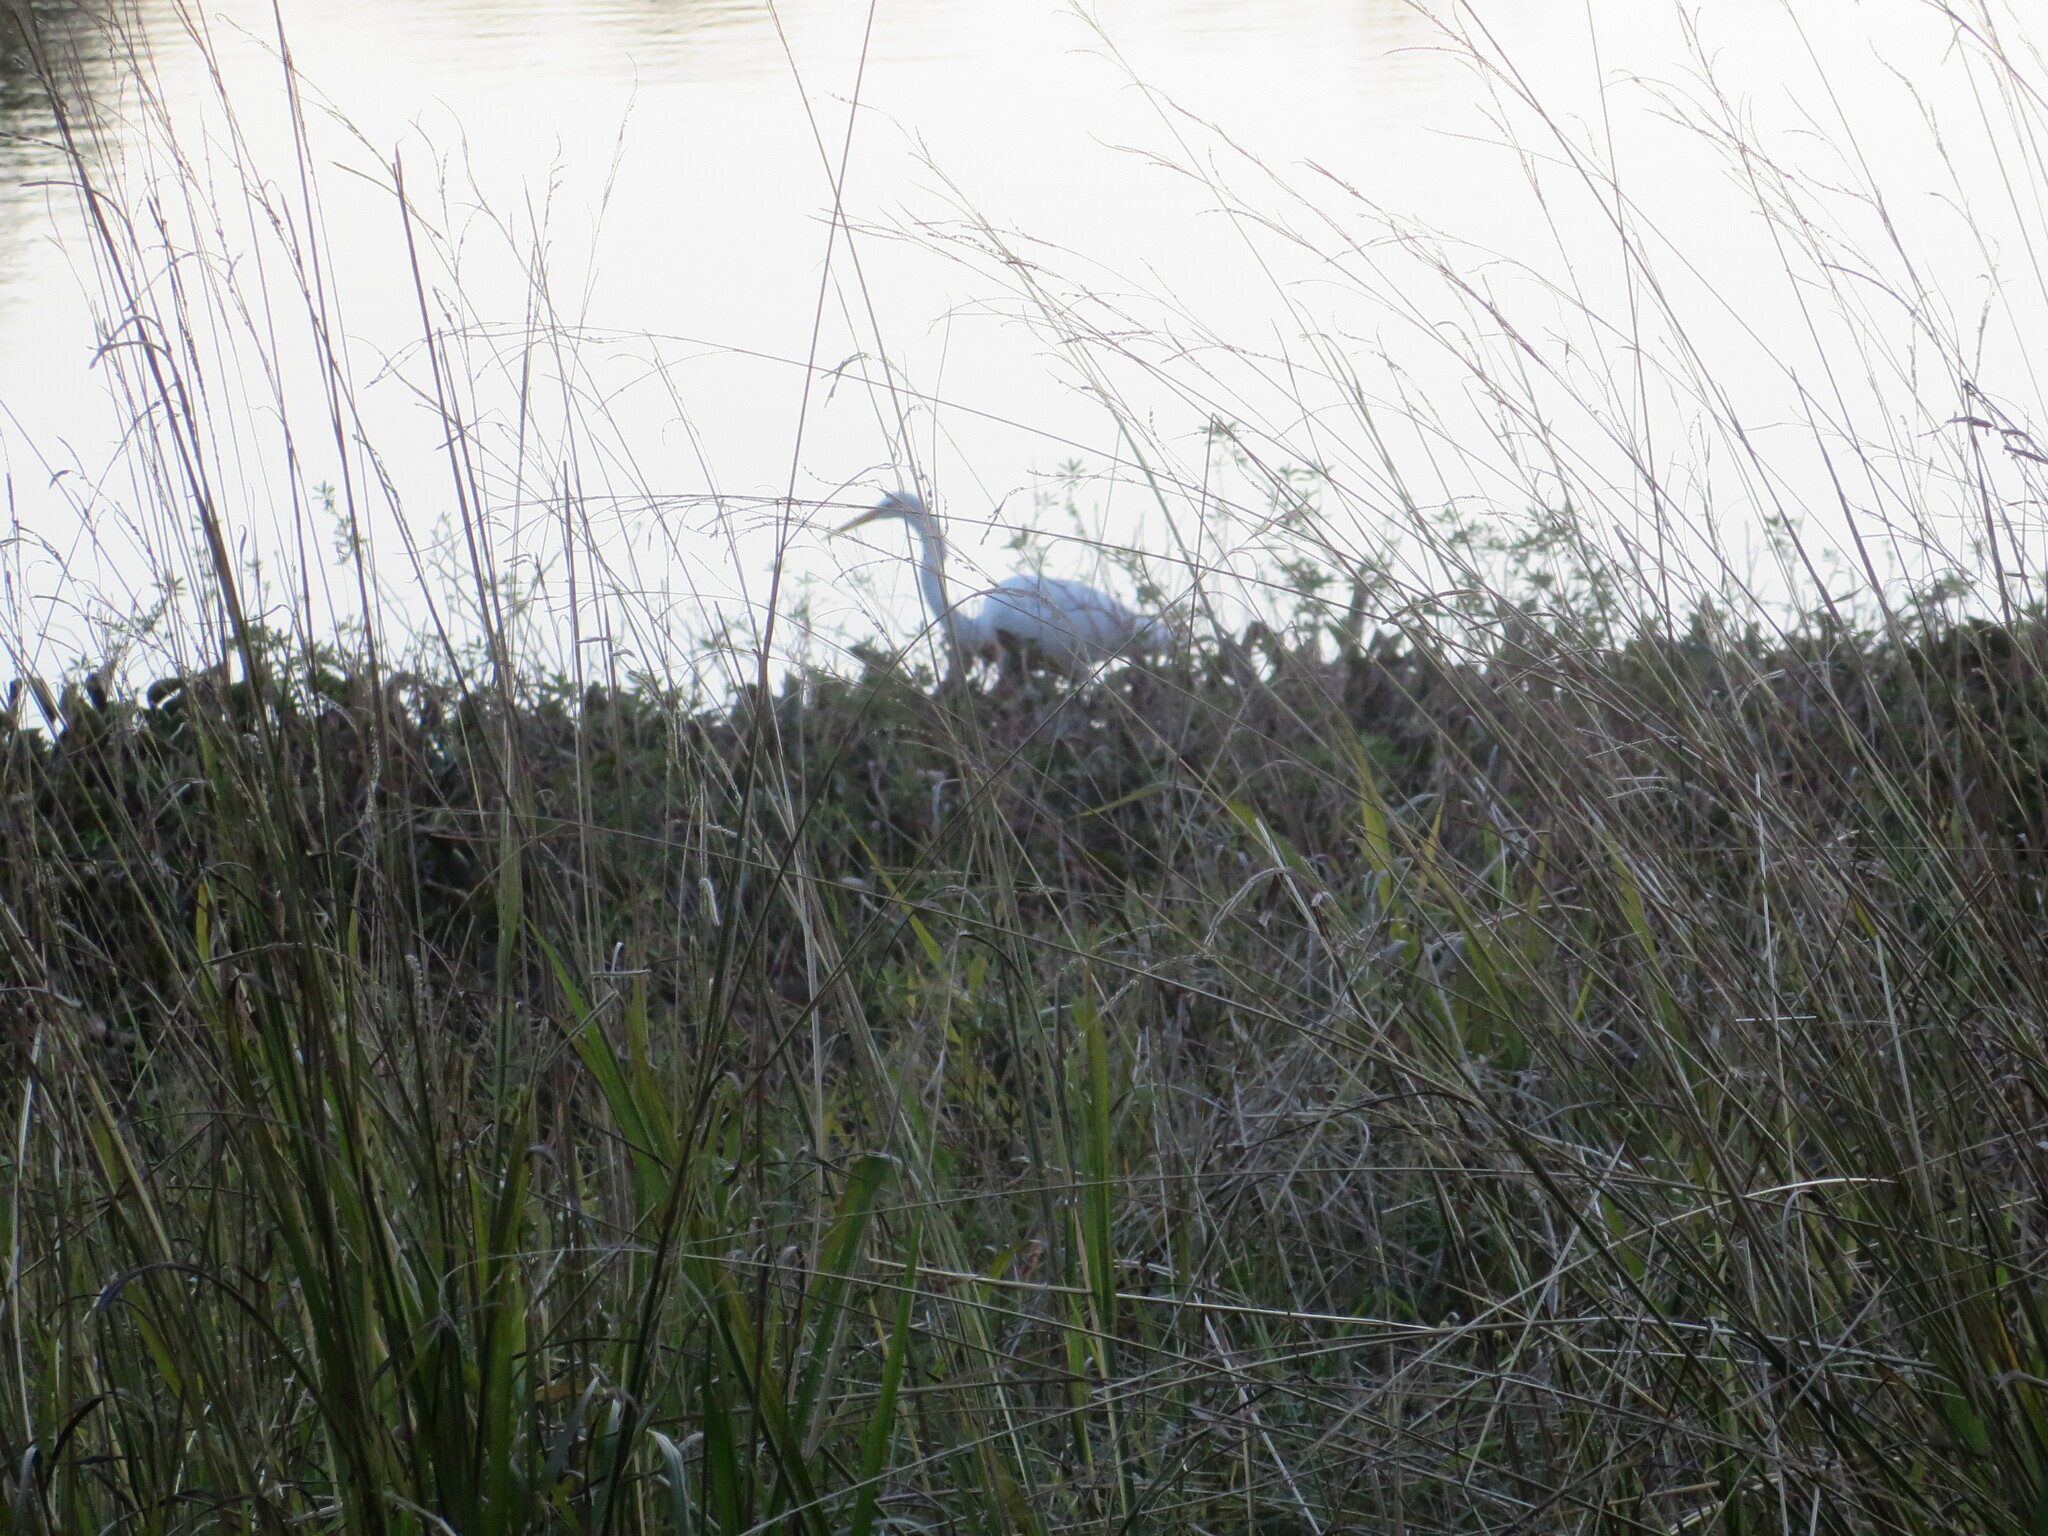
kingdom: Animalia
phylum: Chordata
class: Aves
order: Pelecaniformes
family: Ardeidae
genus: Ardea
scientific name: Ardea alba
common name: Great egret
